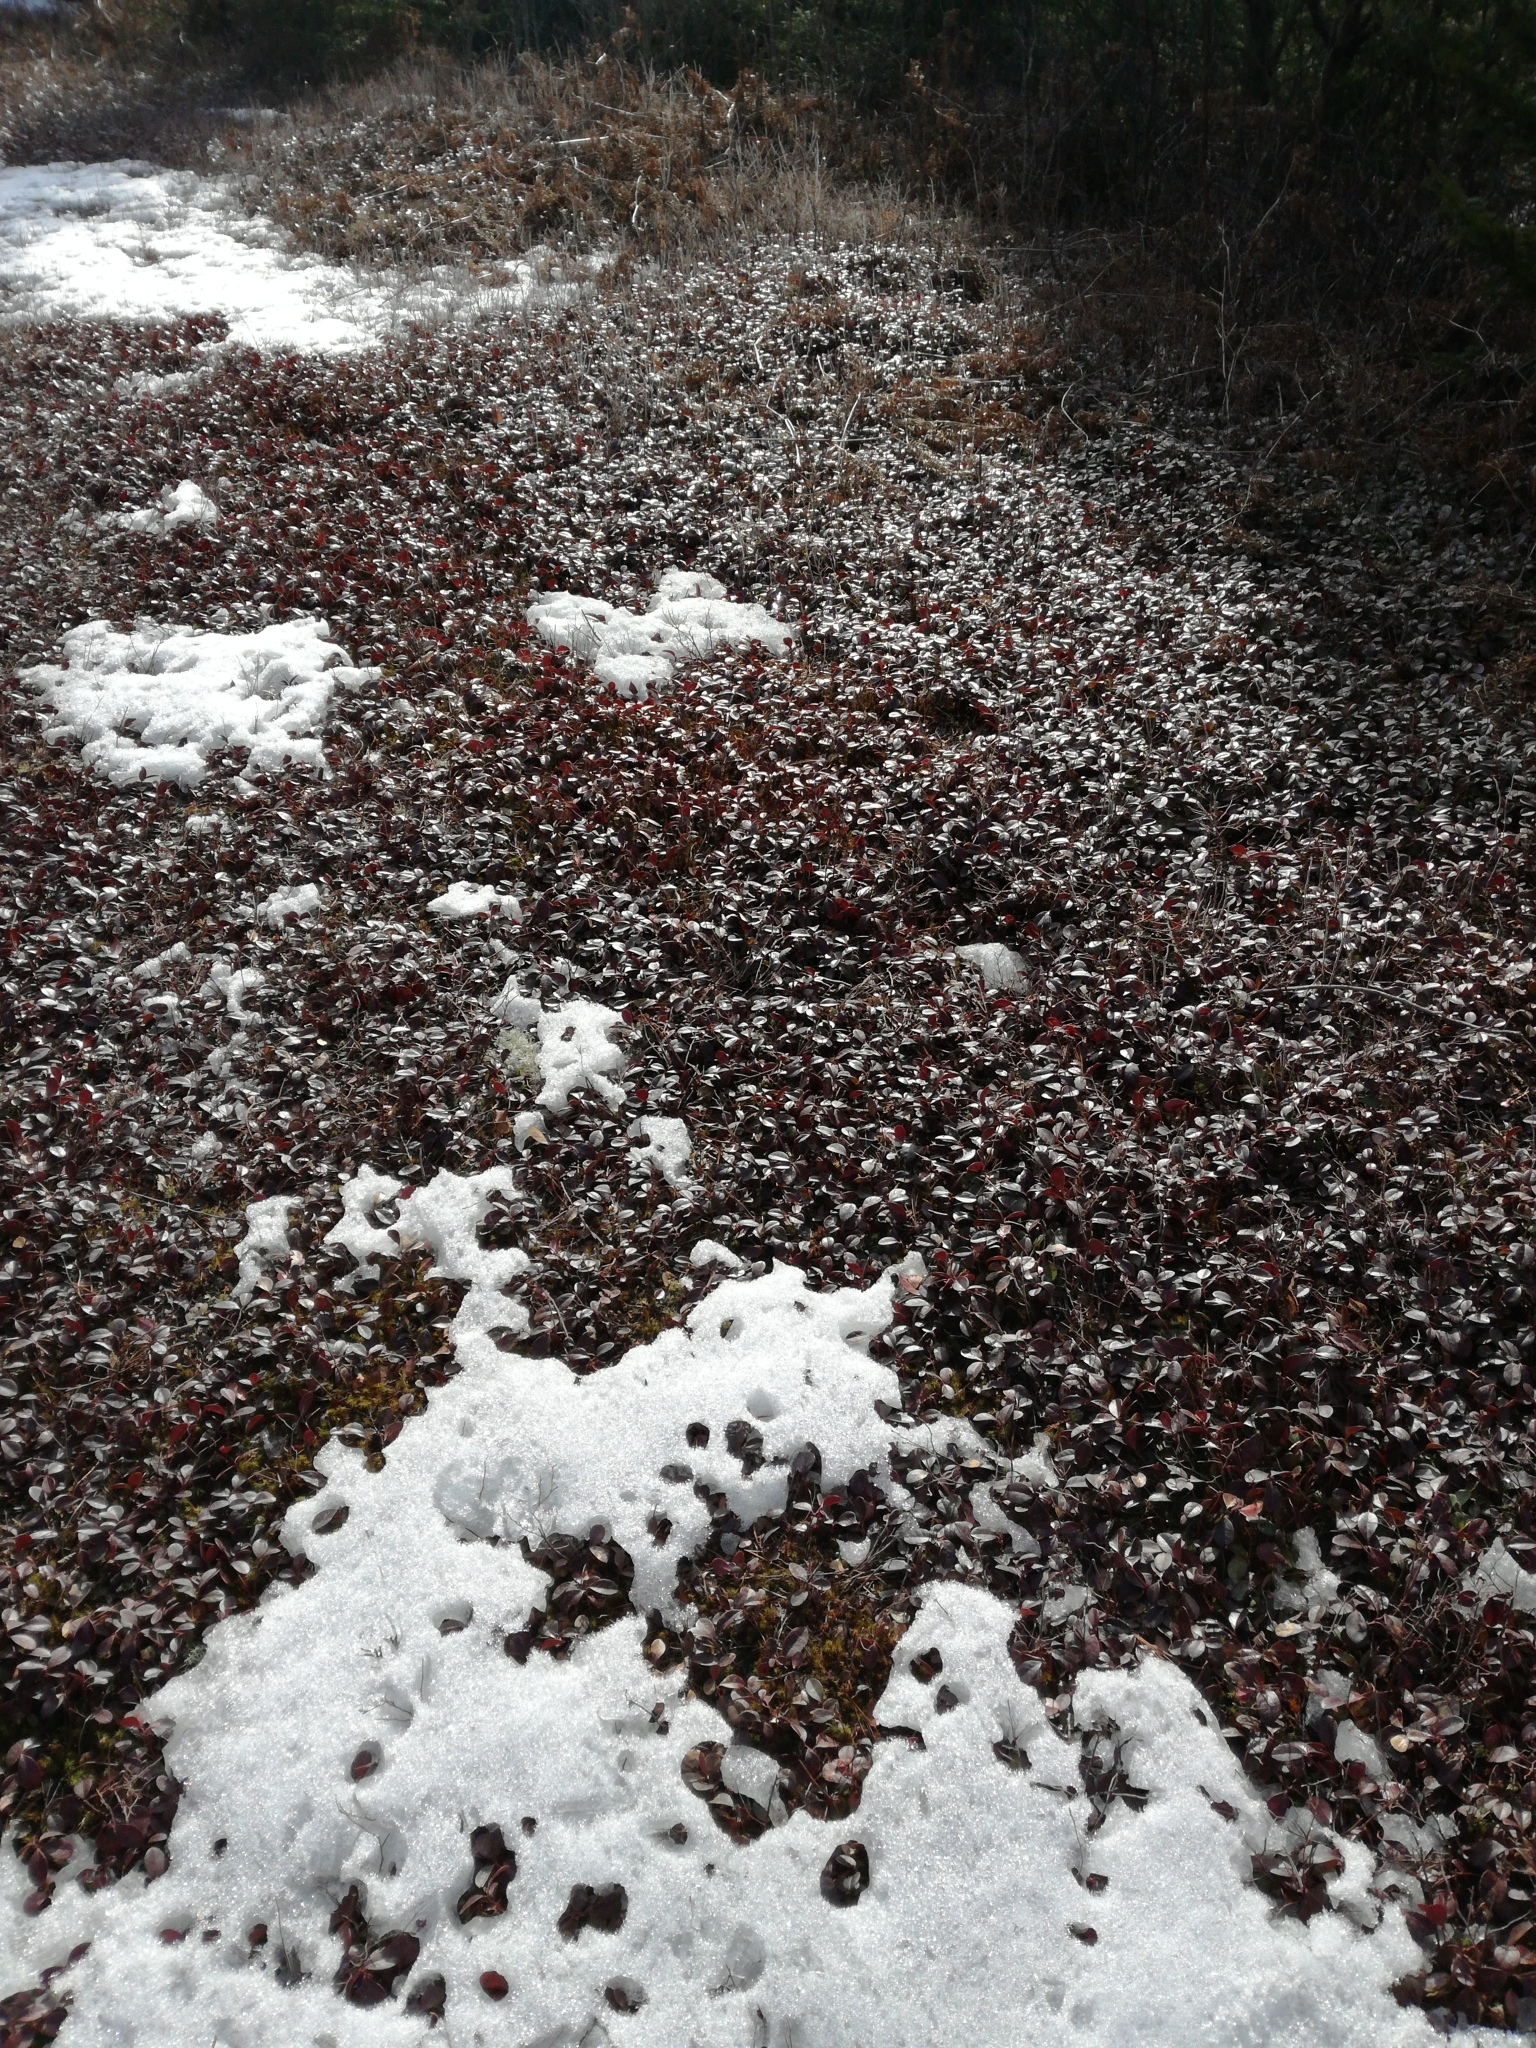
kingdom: Plantae
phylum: Tracheophyta
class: Magnoliopsida
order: Ericales
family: Ericaceae
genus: Gaultheria
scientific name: Gaultheria procumbens
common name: Checkerberry
